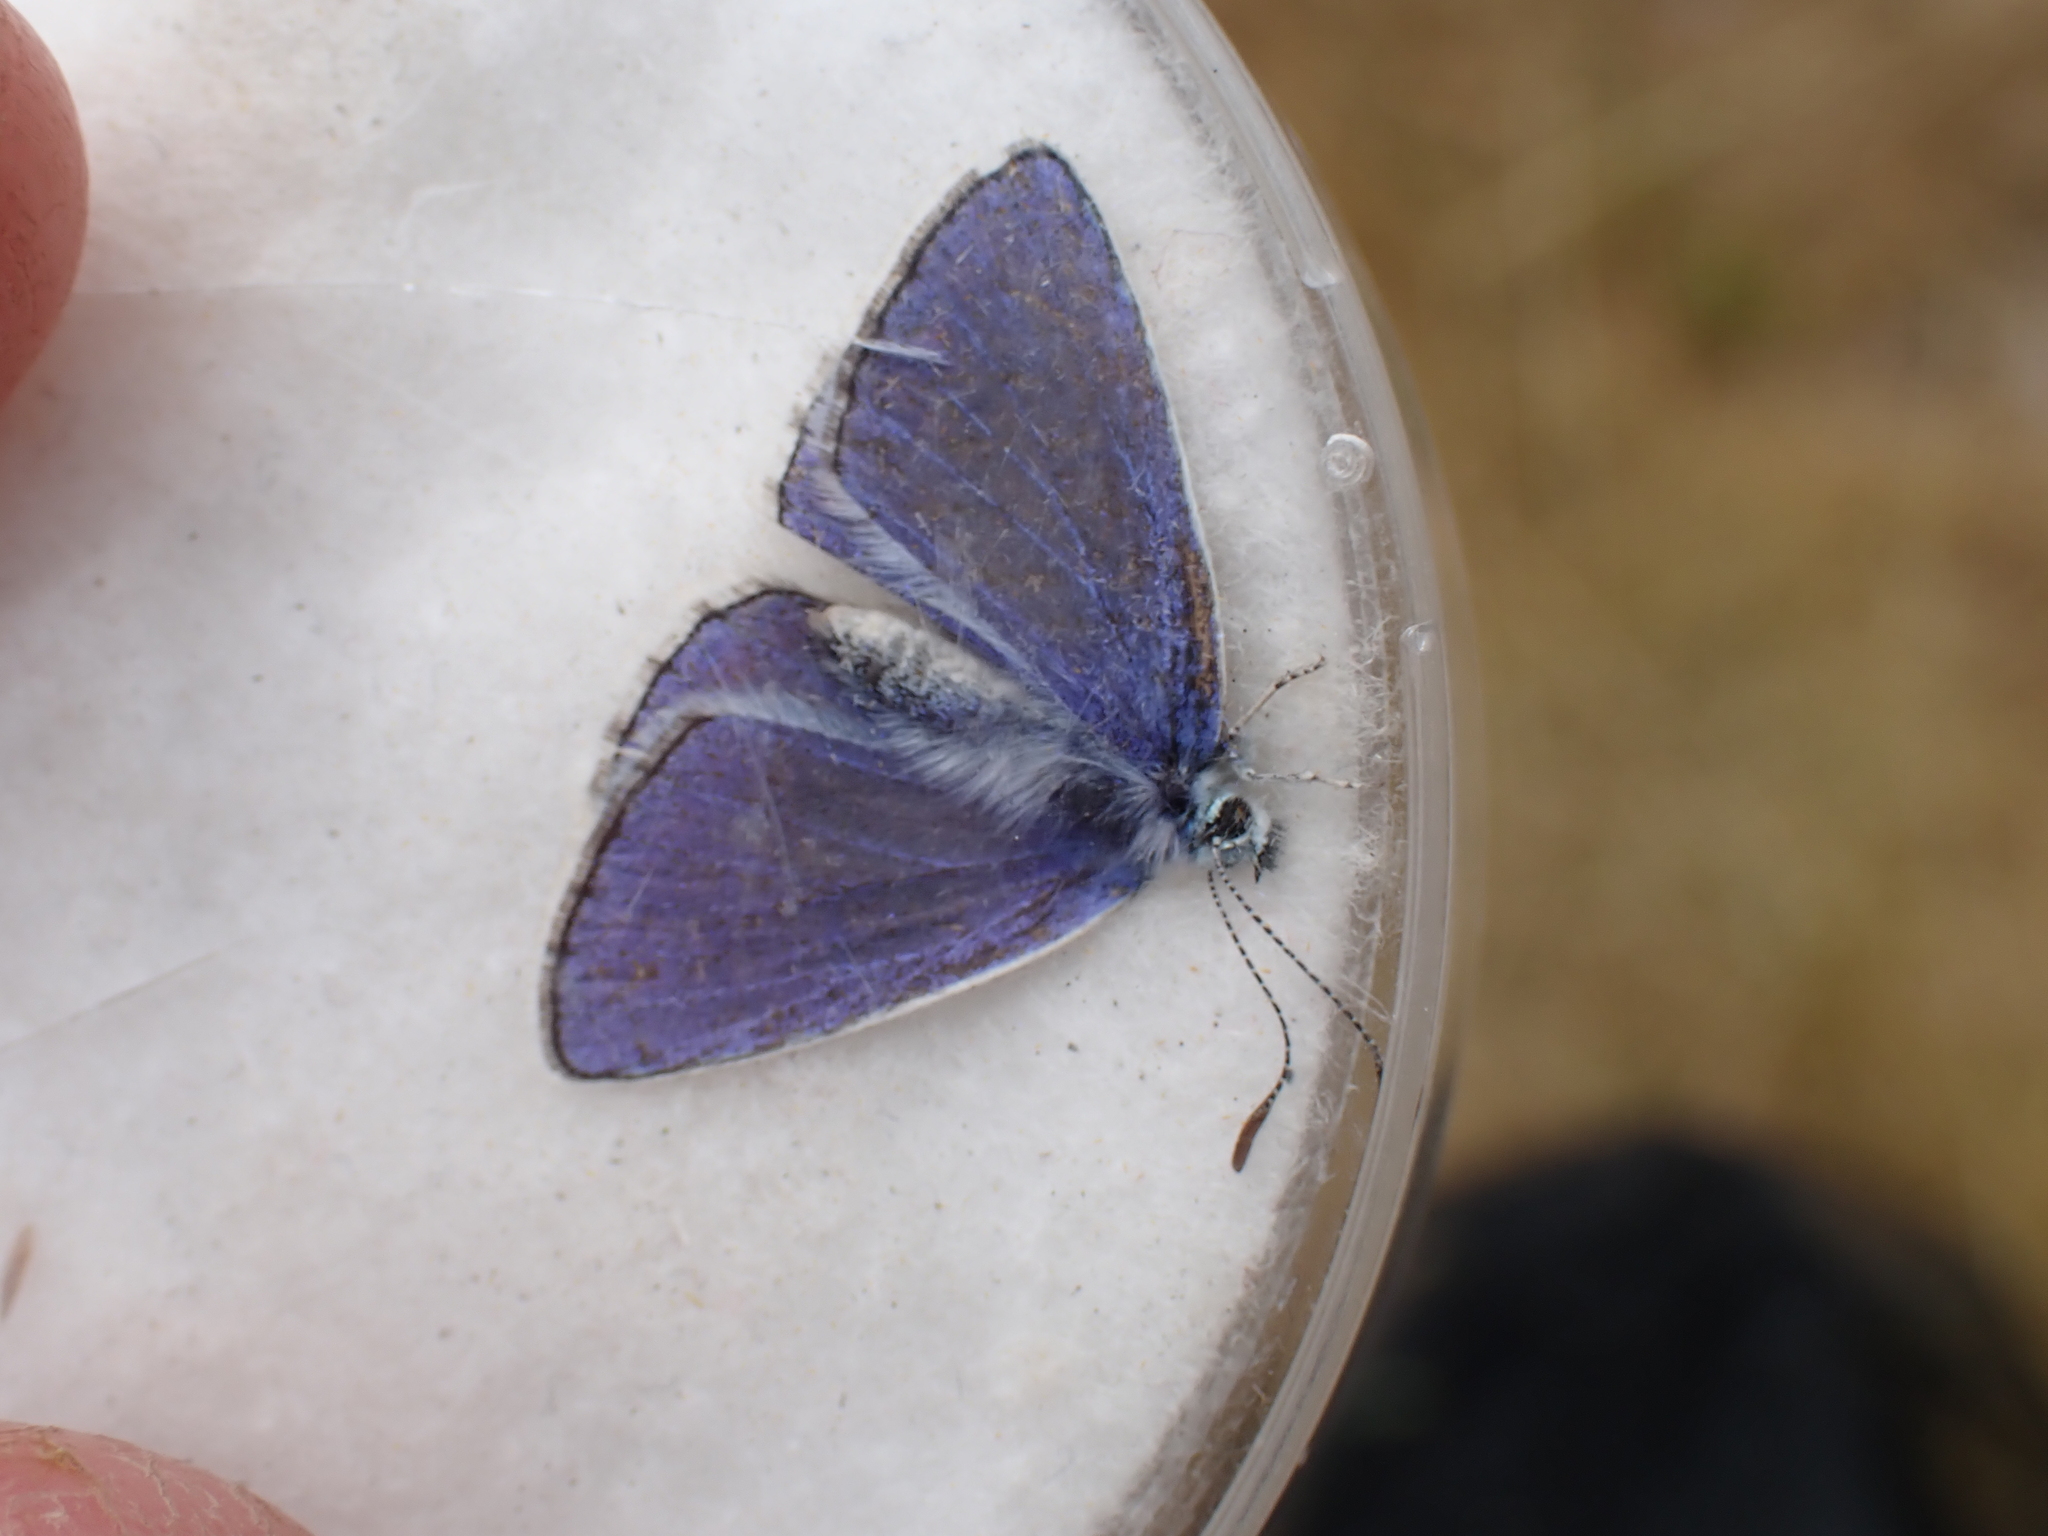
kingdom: Animalia
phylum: Arthropoda
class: Insecta
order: Lepidoptera
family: Lycaenidae
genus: Polyommatus
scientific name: Polyommatus icarus
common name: Common blue
